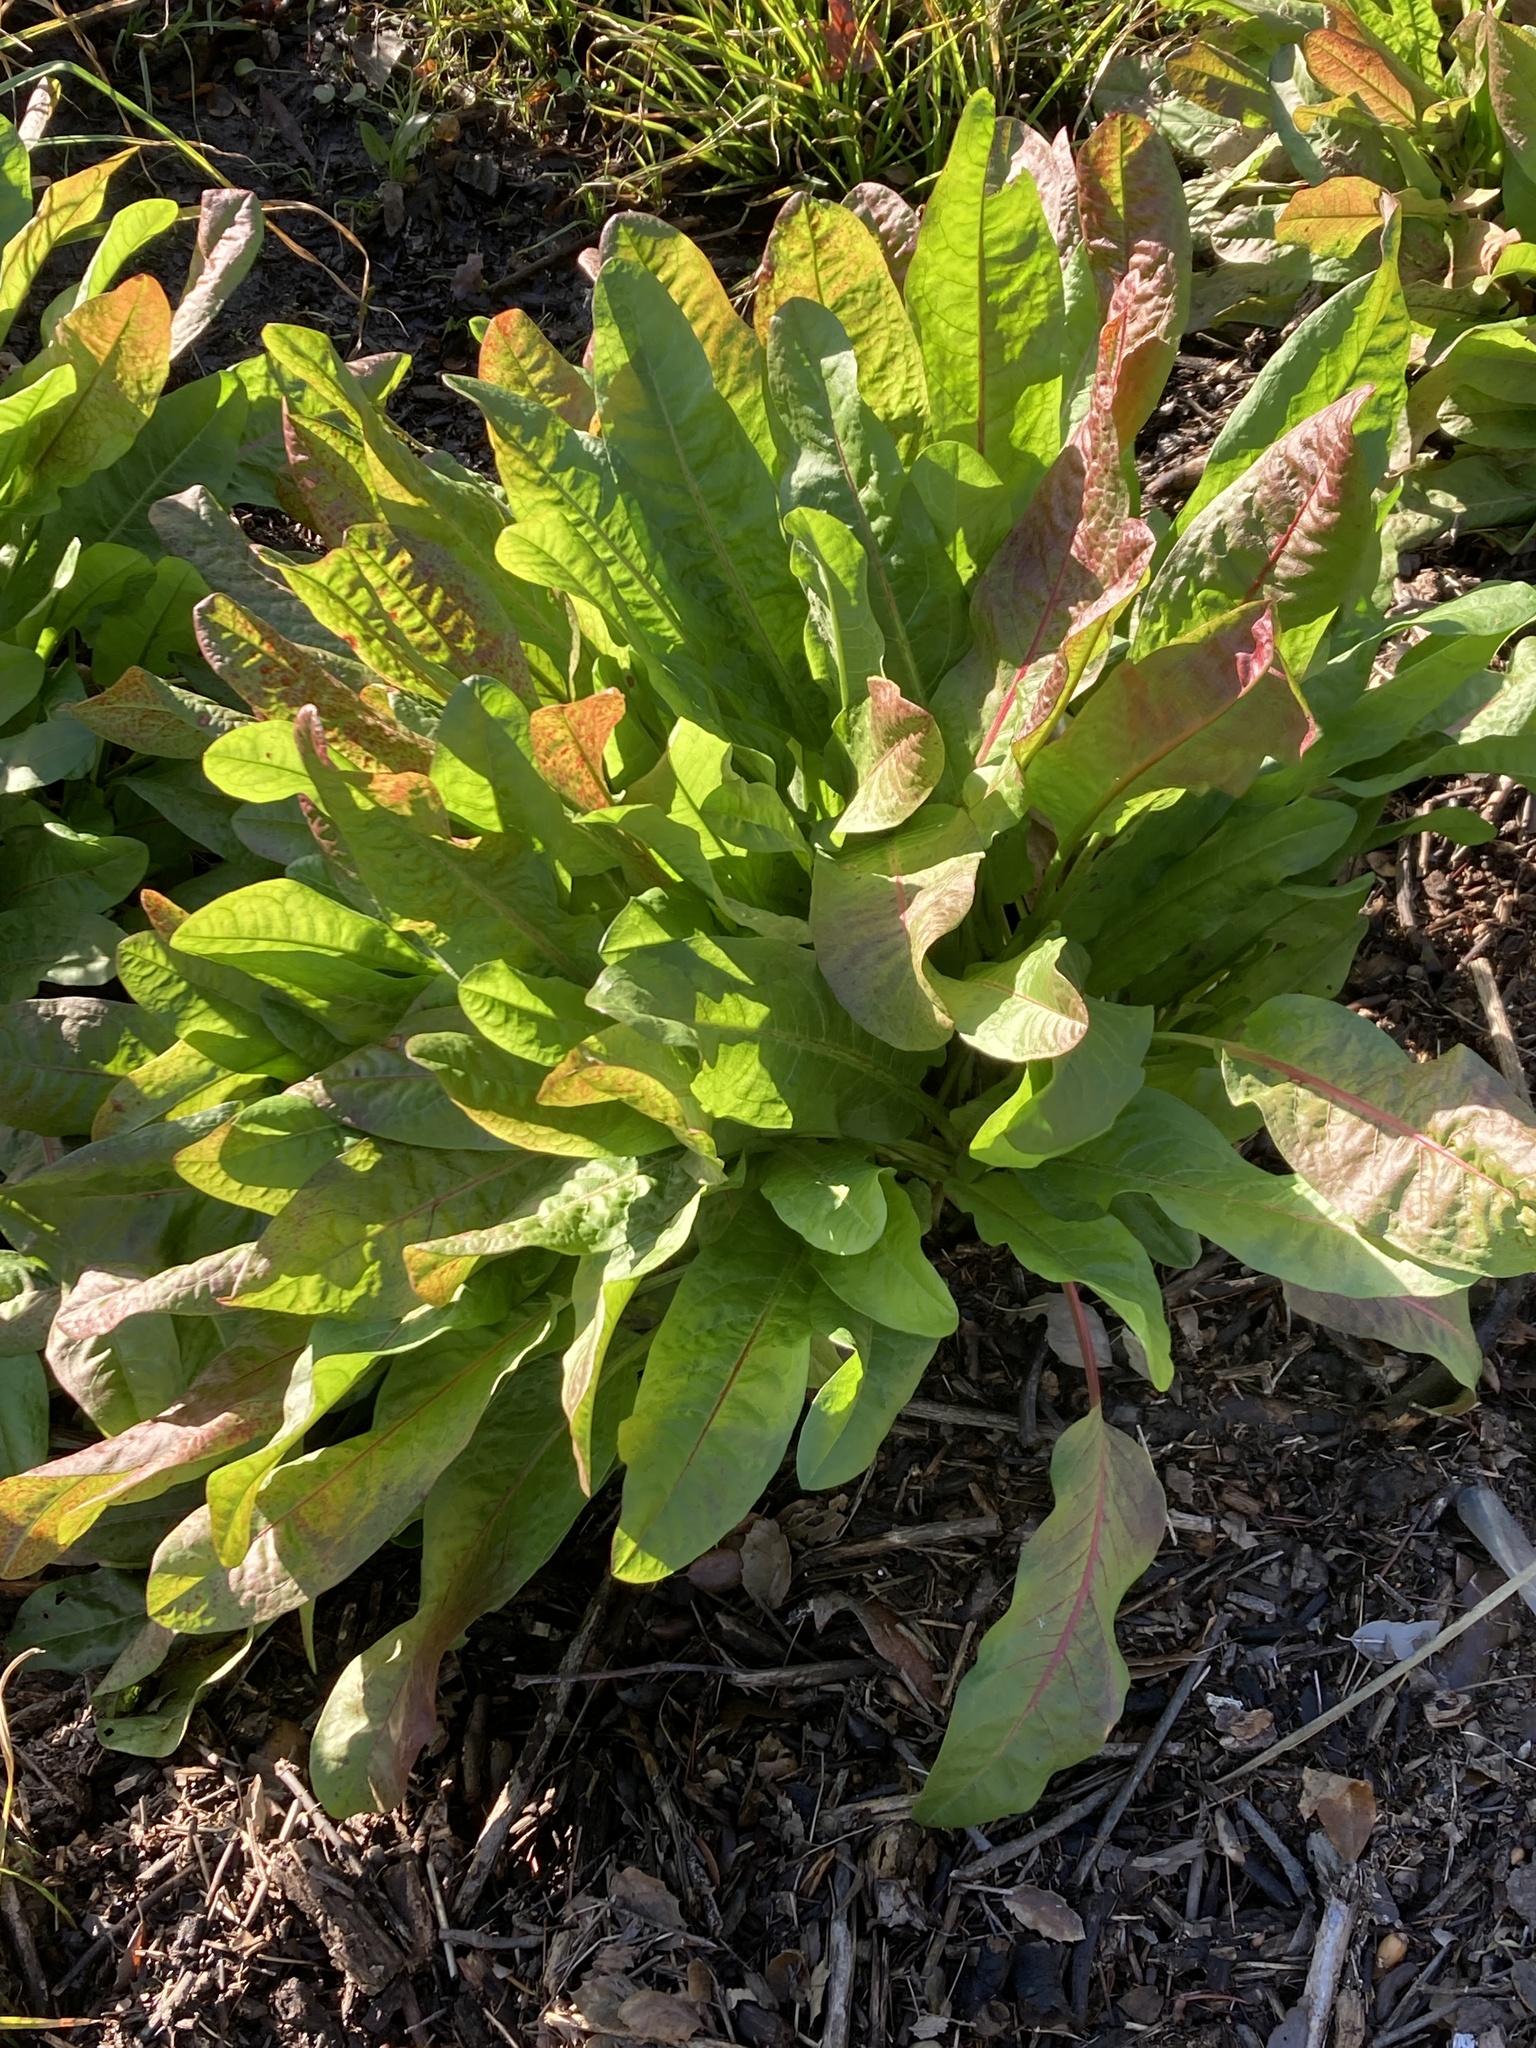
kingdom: Plantae
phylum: Tracheophyta
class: Magnoliopsida
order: Caryophyllales
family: Polygonaceae
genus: Rumex
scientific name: Rumex crispus
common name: Curled dock
